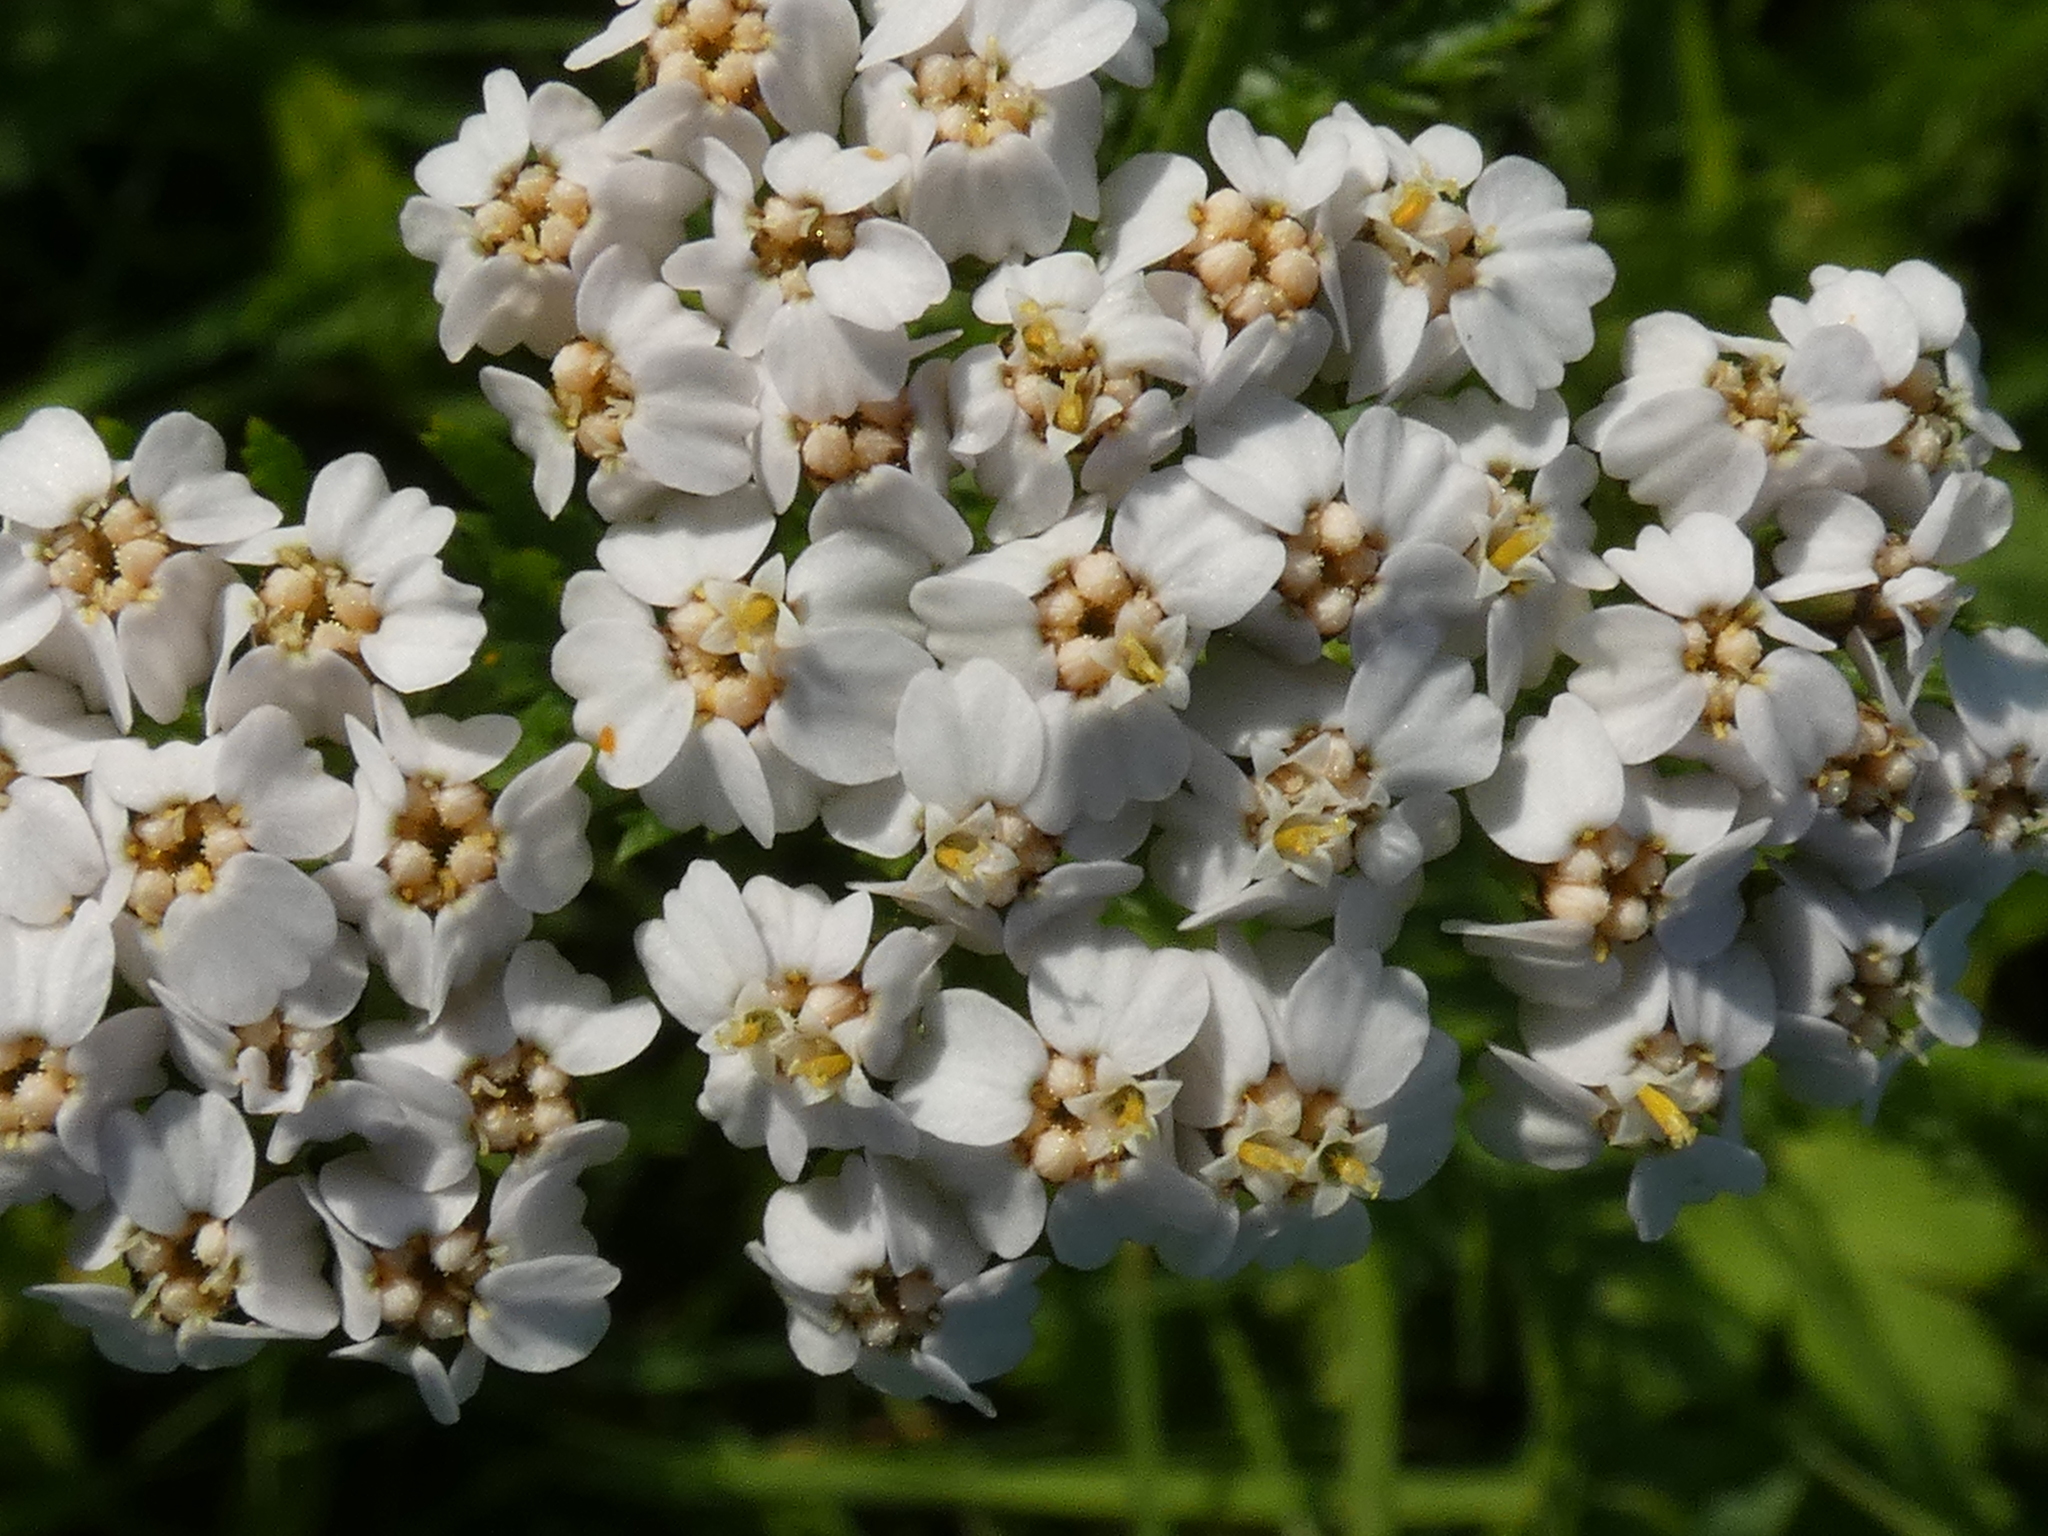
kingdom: Plantae
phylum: Tracheophyta
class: Magnoliopsida
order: Asterales
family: Asteraceae
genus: Achillea
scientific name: Achillea millefolium
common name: Yarrow
